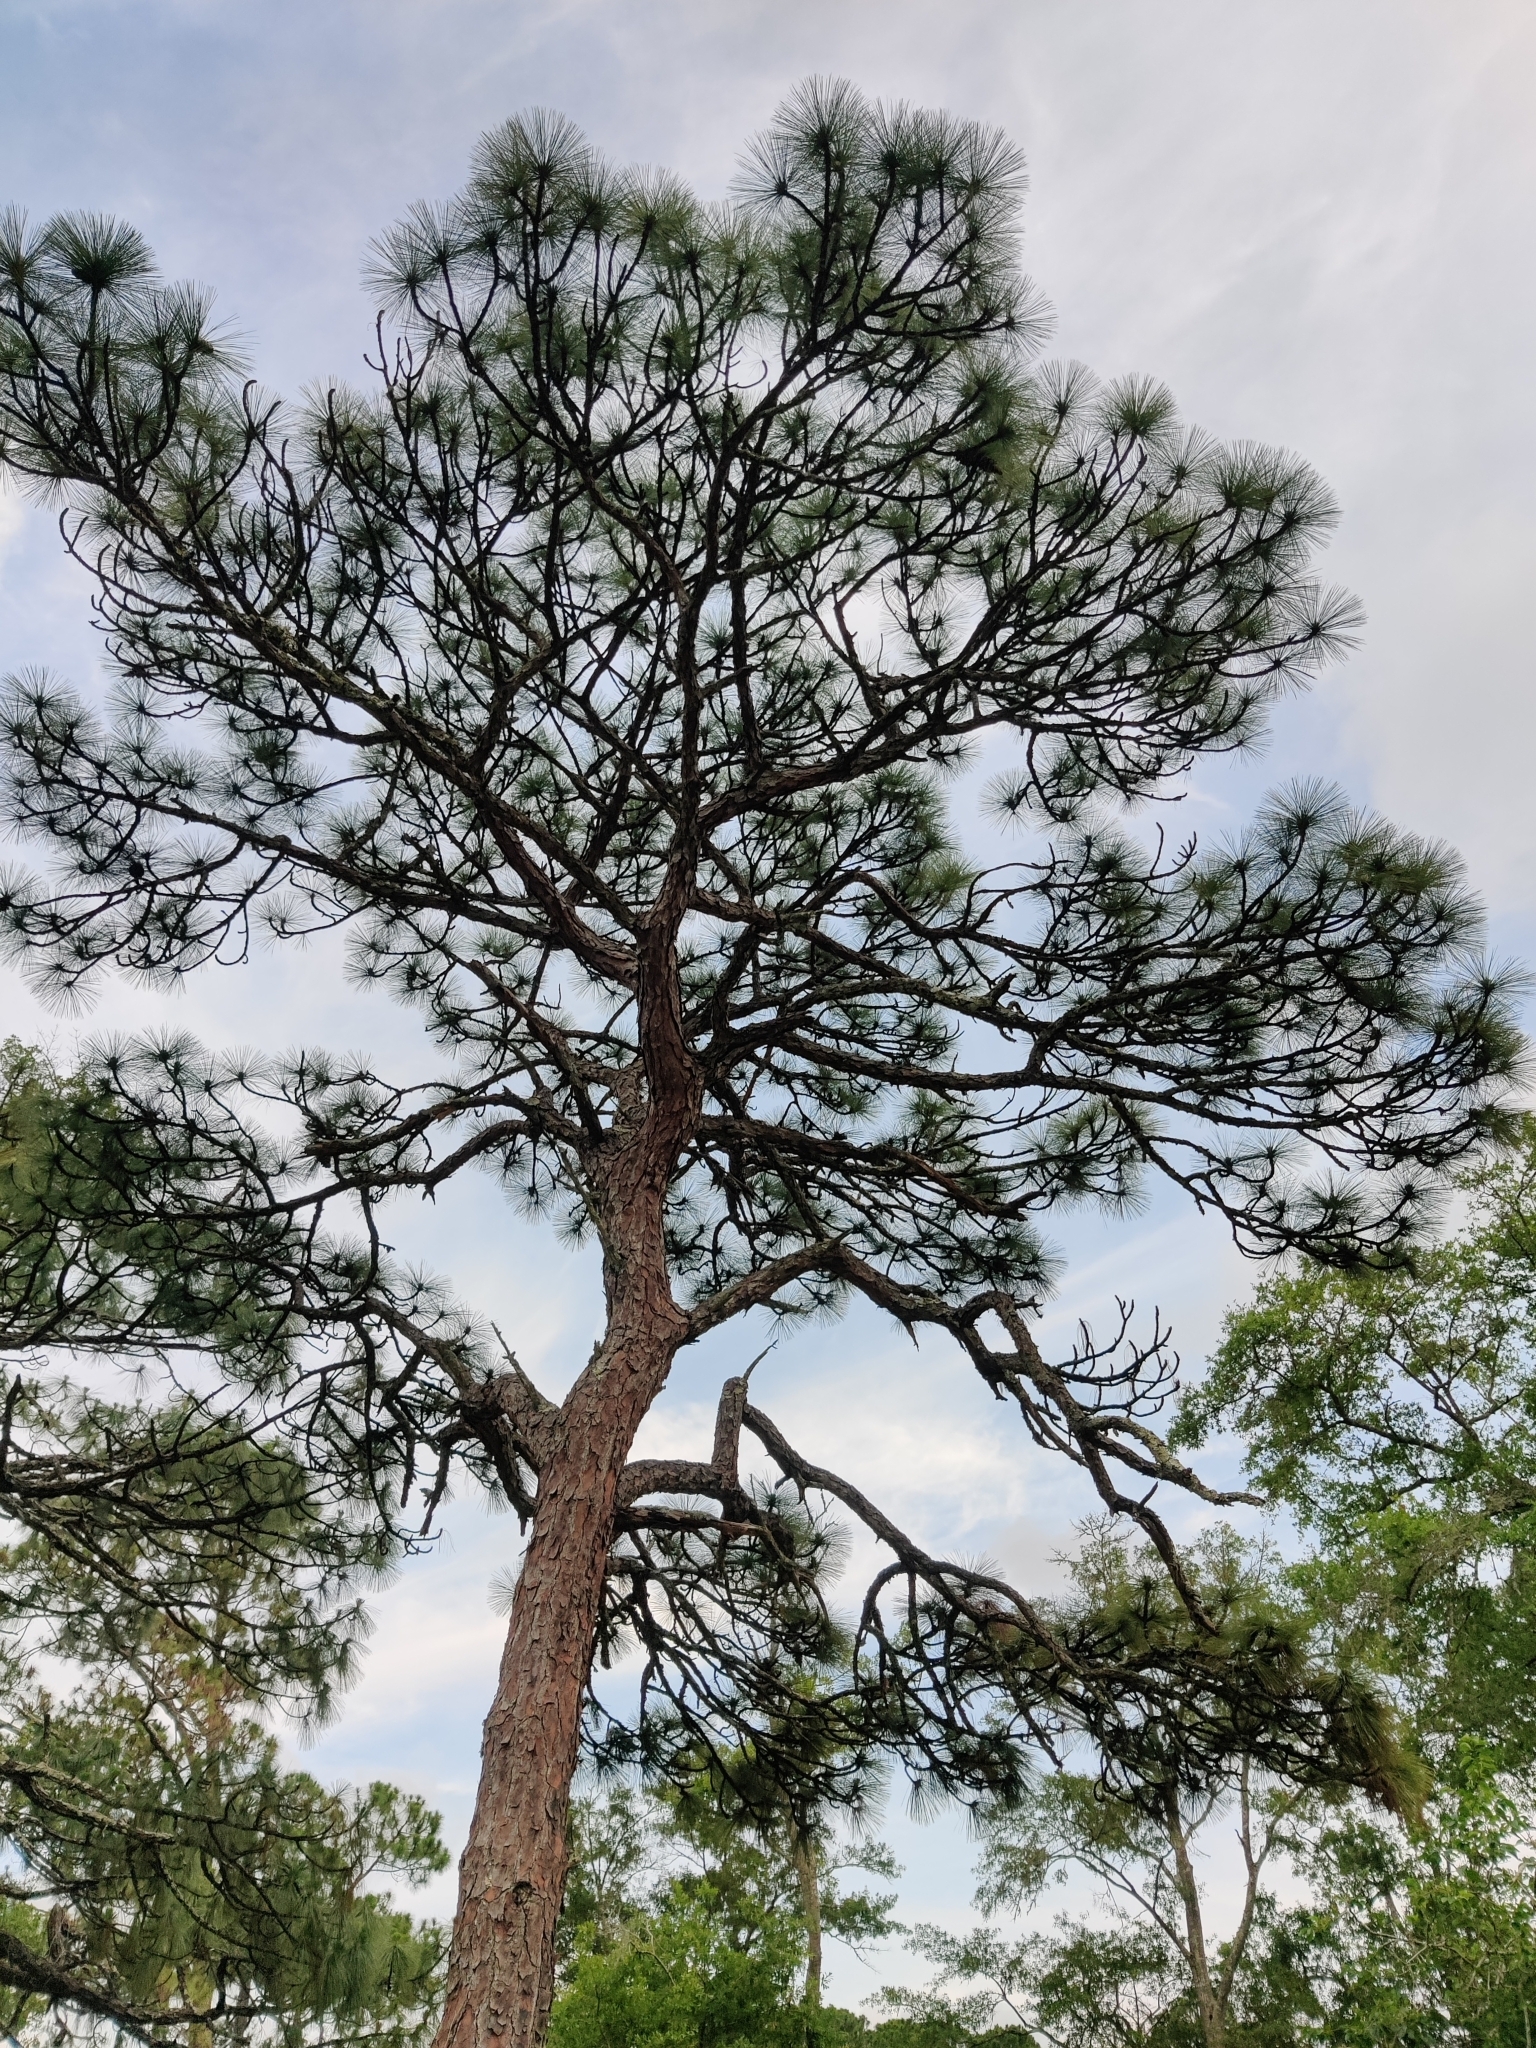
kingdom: Plantae
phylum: Tracheophyta
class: Pinopsida
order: Pinales
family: Pinaceae
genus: Pinus
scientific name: Pinus palustris
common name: Longleaf pine
